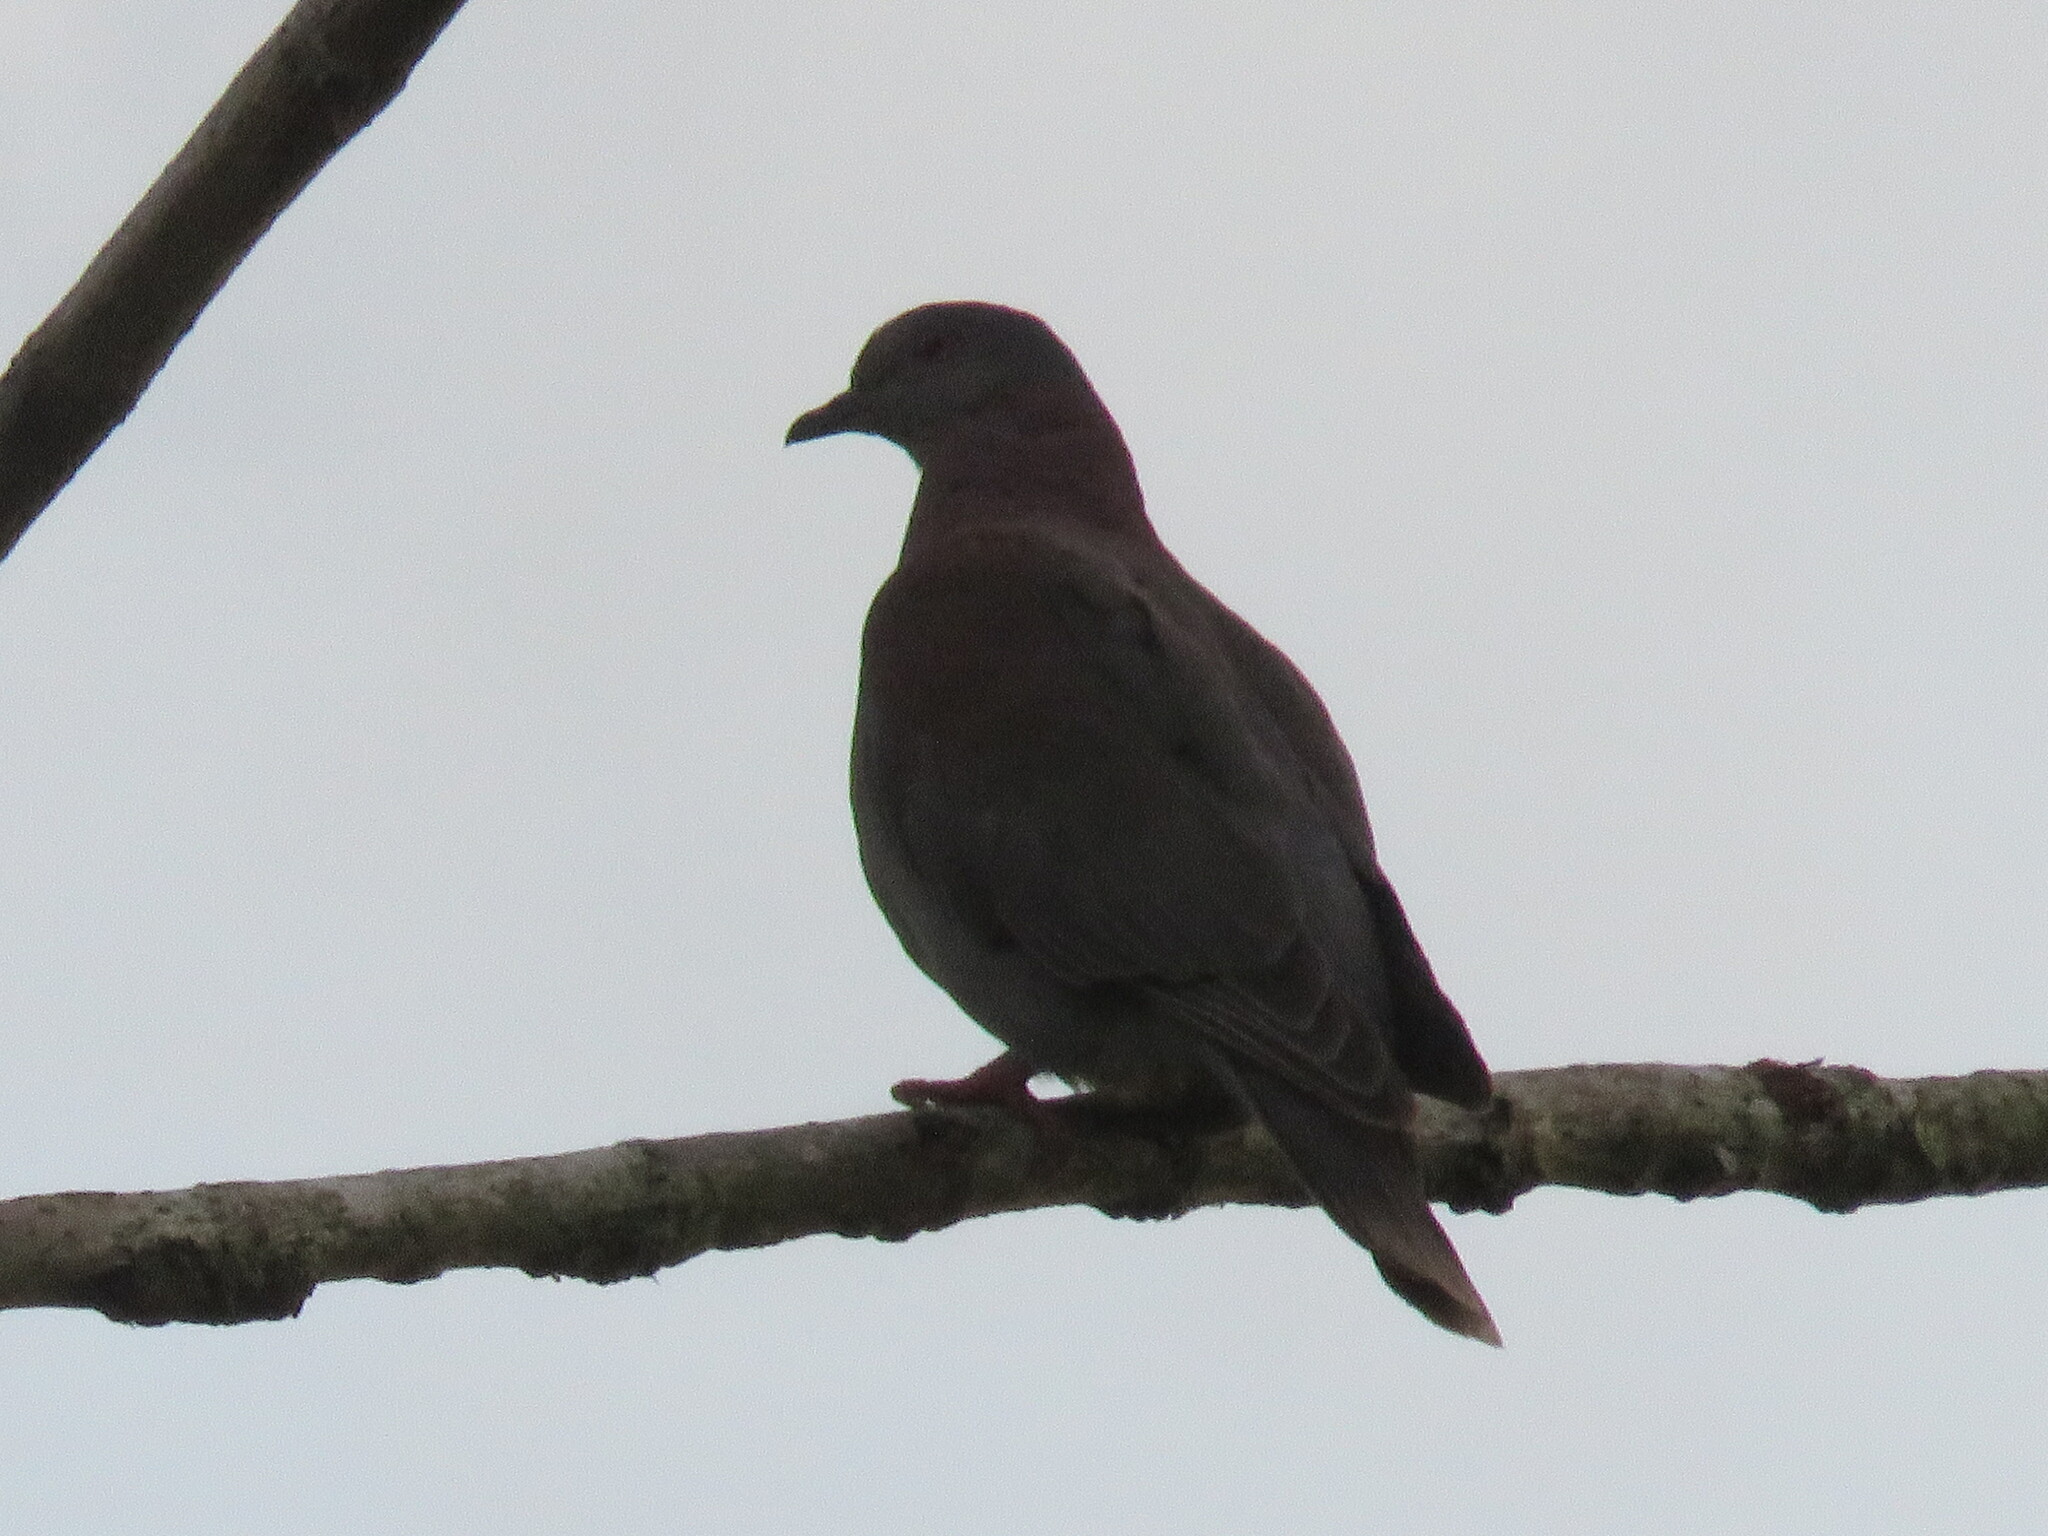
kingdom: Animalia
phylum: Chordata
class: Aves
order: Columbiformes
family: Columbidae
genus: Patagioenas
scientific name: Patagioenas cayennensis
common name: Pale-vented pigeon
